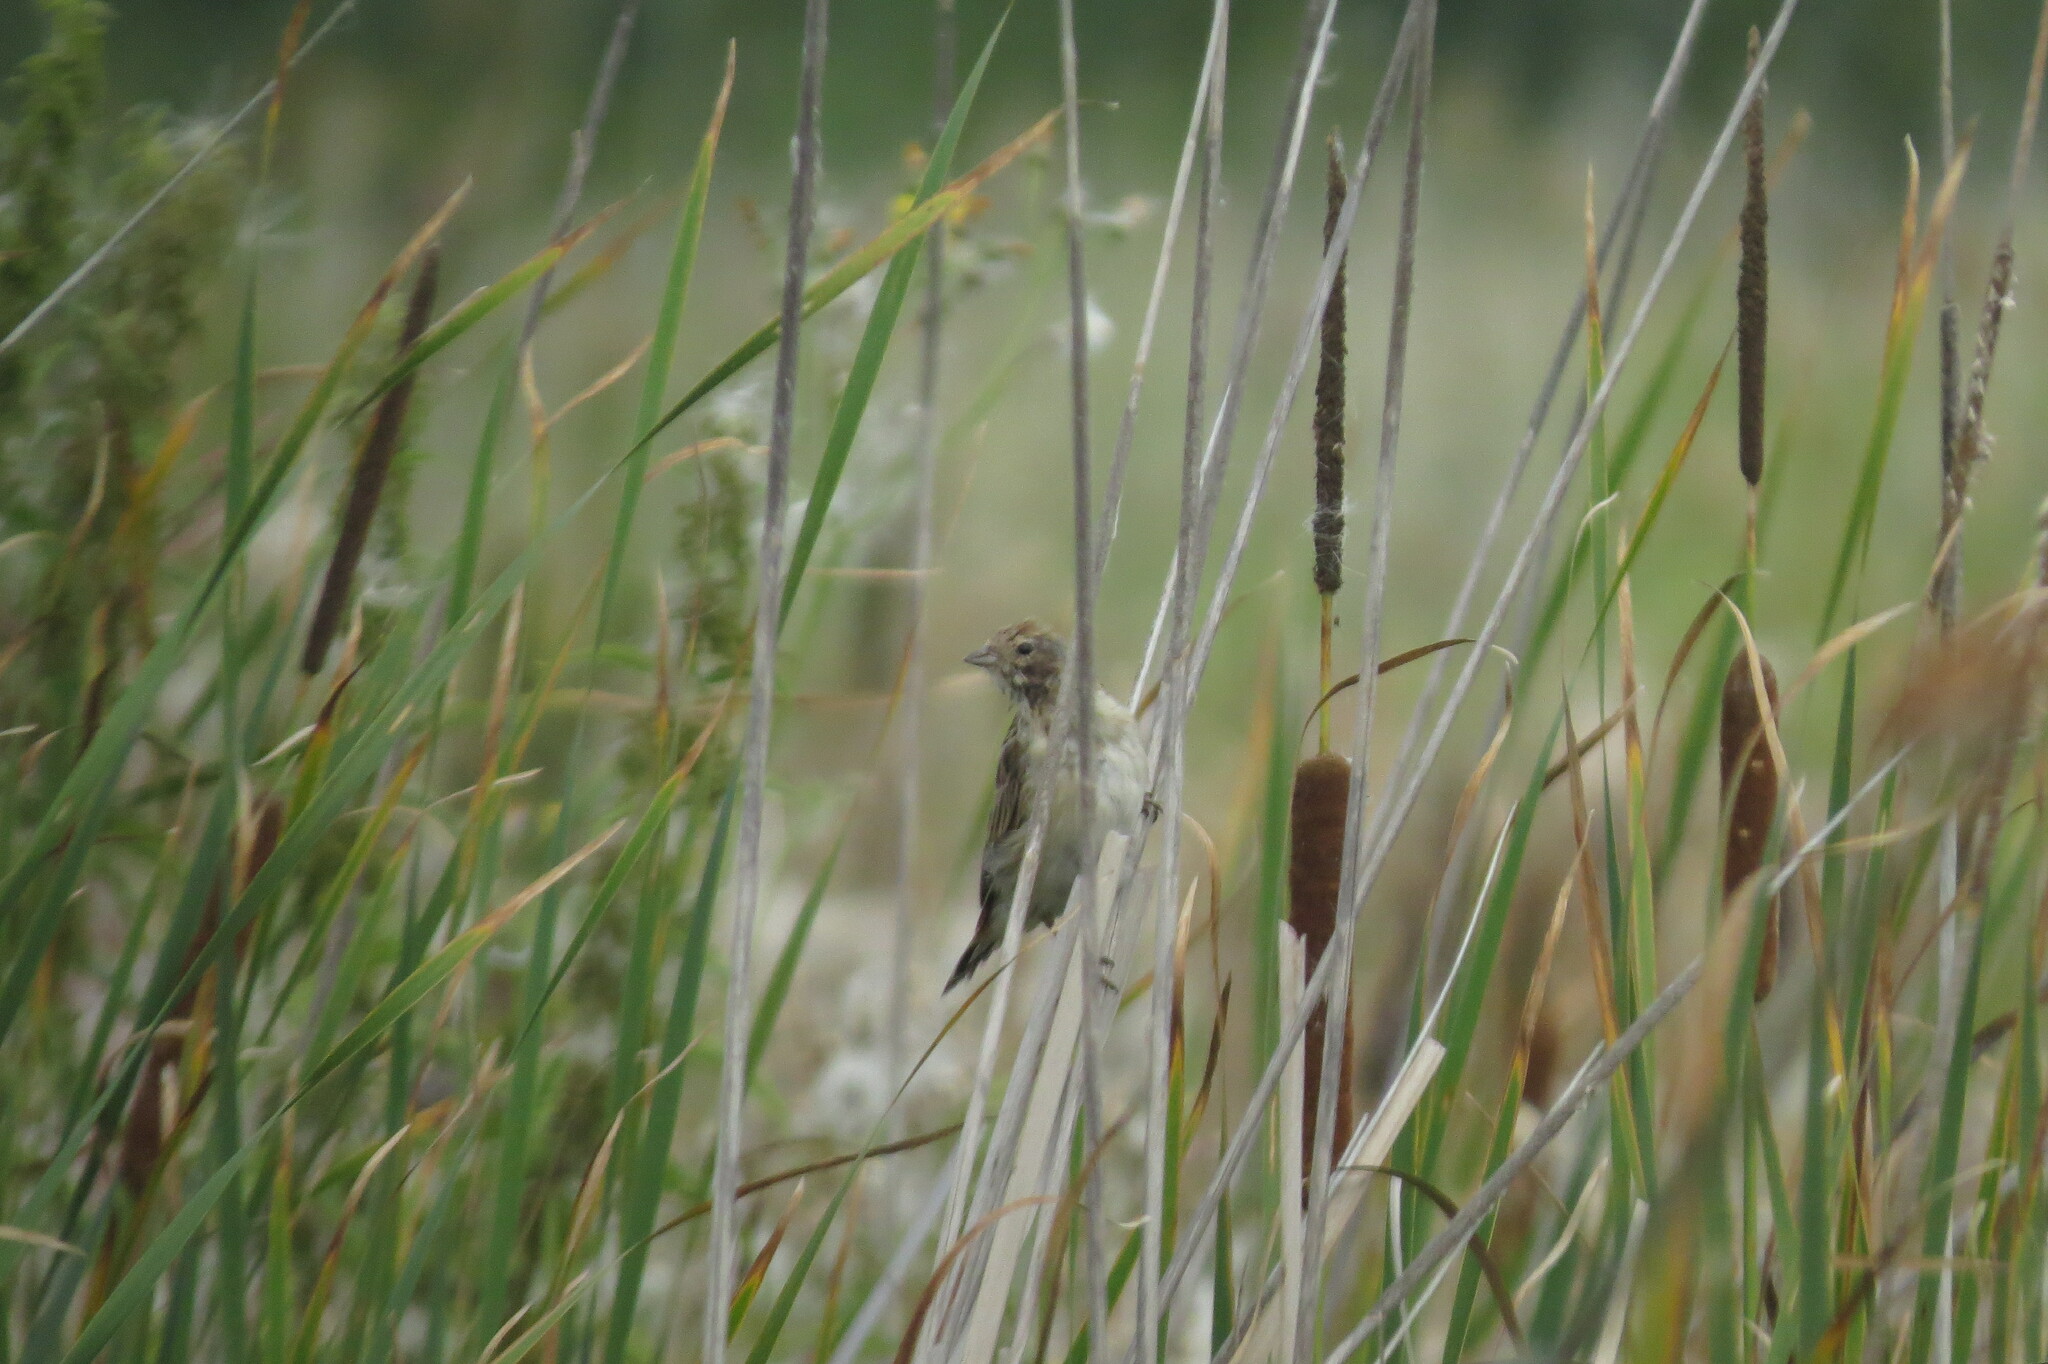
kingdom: Animalia
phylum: Chordata
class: Aves
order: Passeriformes
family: Emberizidae
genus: Emberiza
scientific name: Emberiza schoeniclus
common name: Reed bunting
